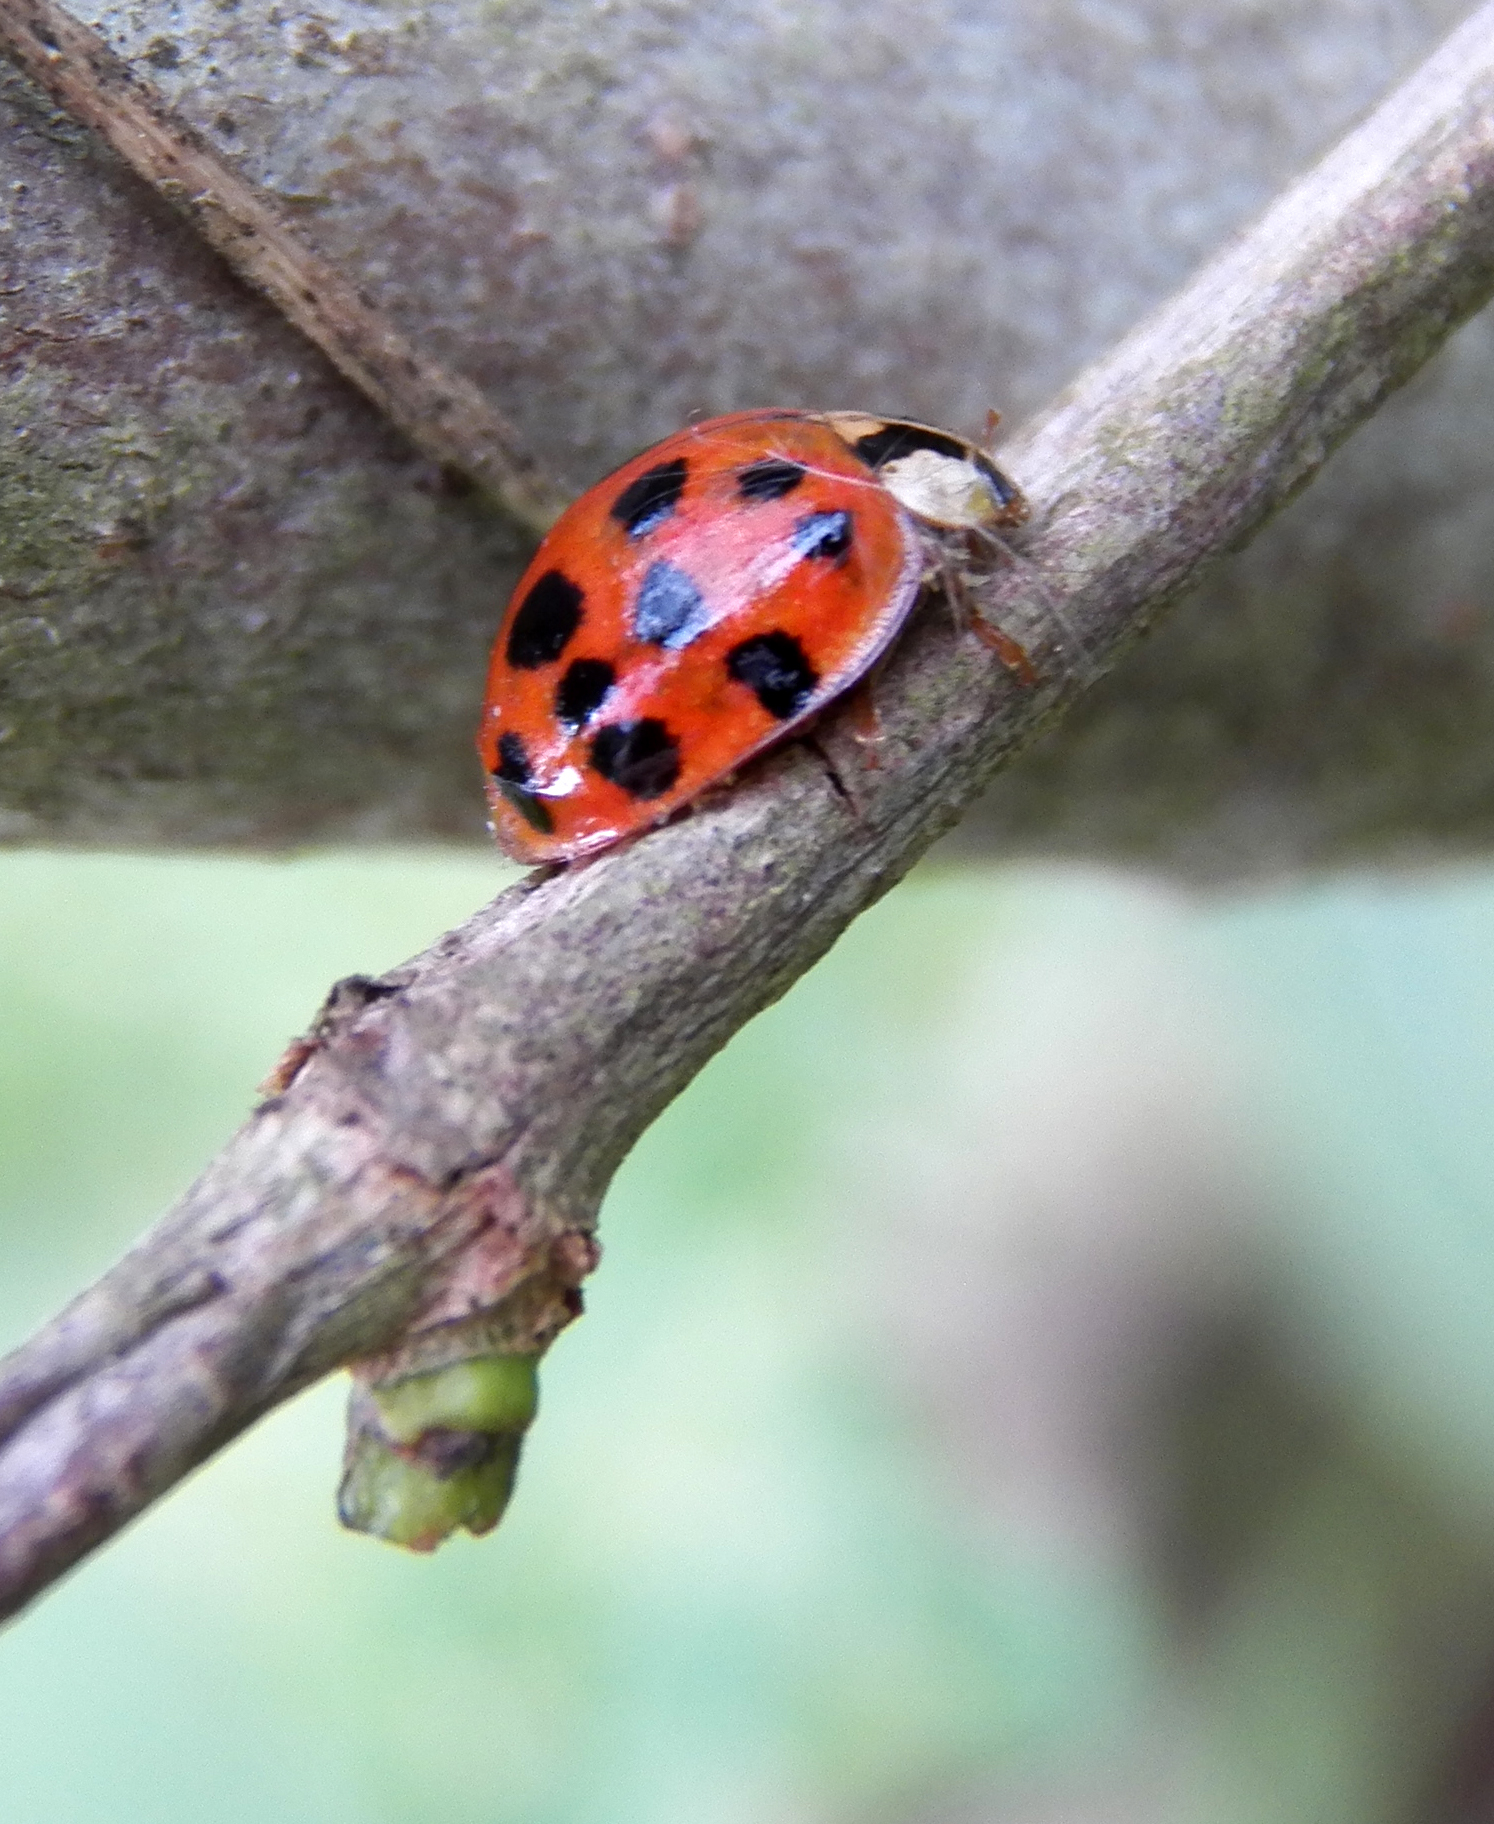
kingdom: Animalia
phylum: Arthropoda
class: Insecta
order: Coleoptera
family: Coccinellidae
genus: Harmonia
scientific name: Harmonia axyridis
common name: Harlequin ladybird
